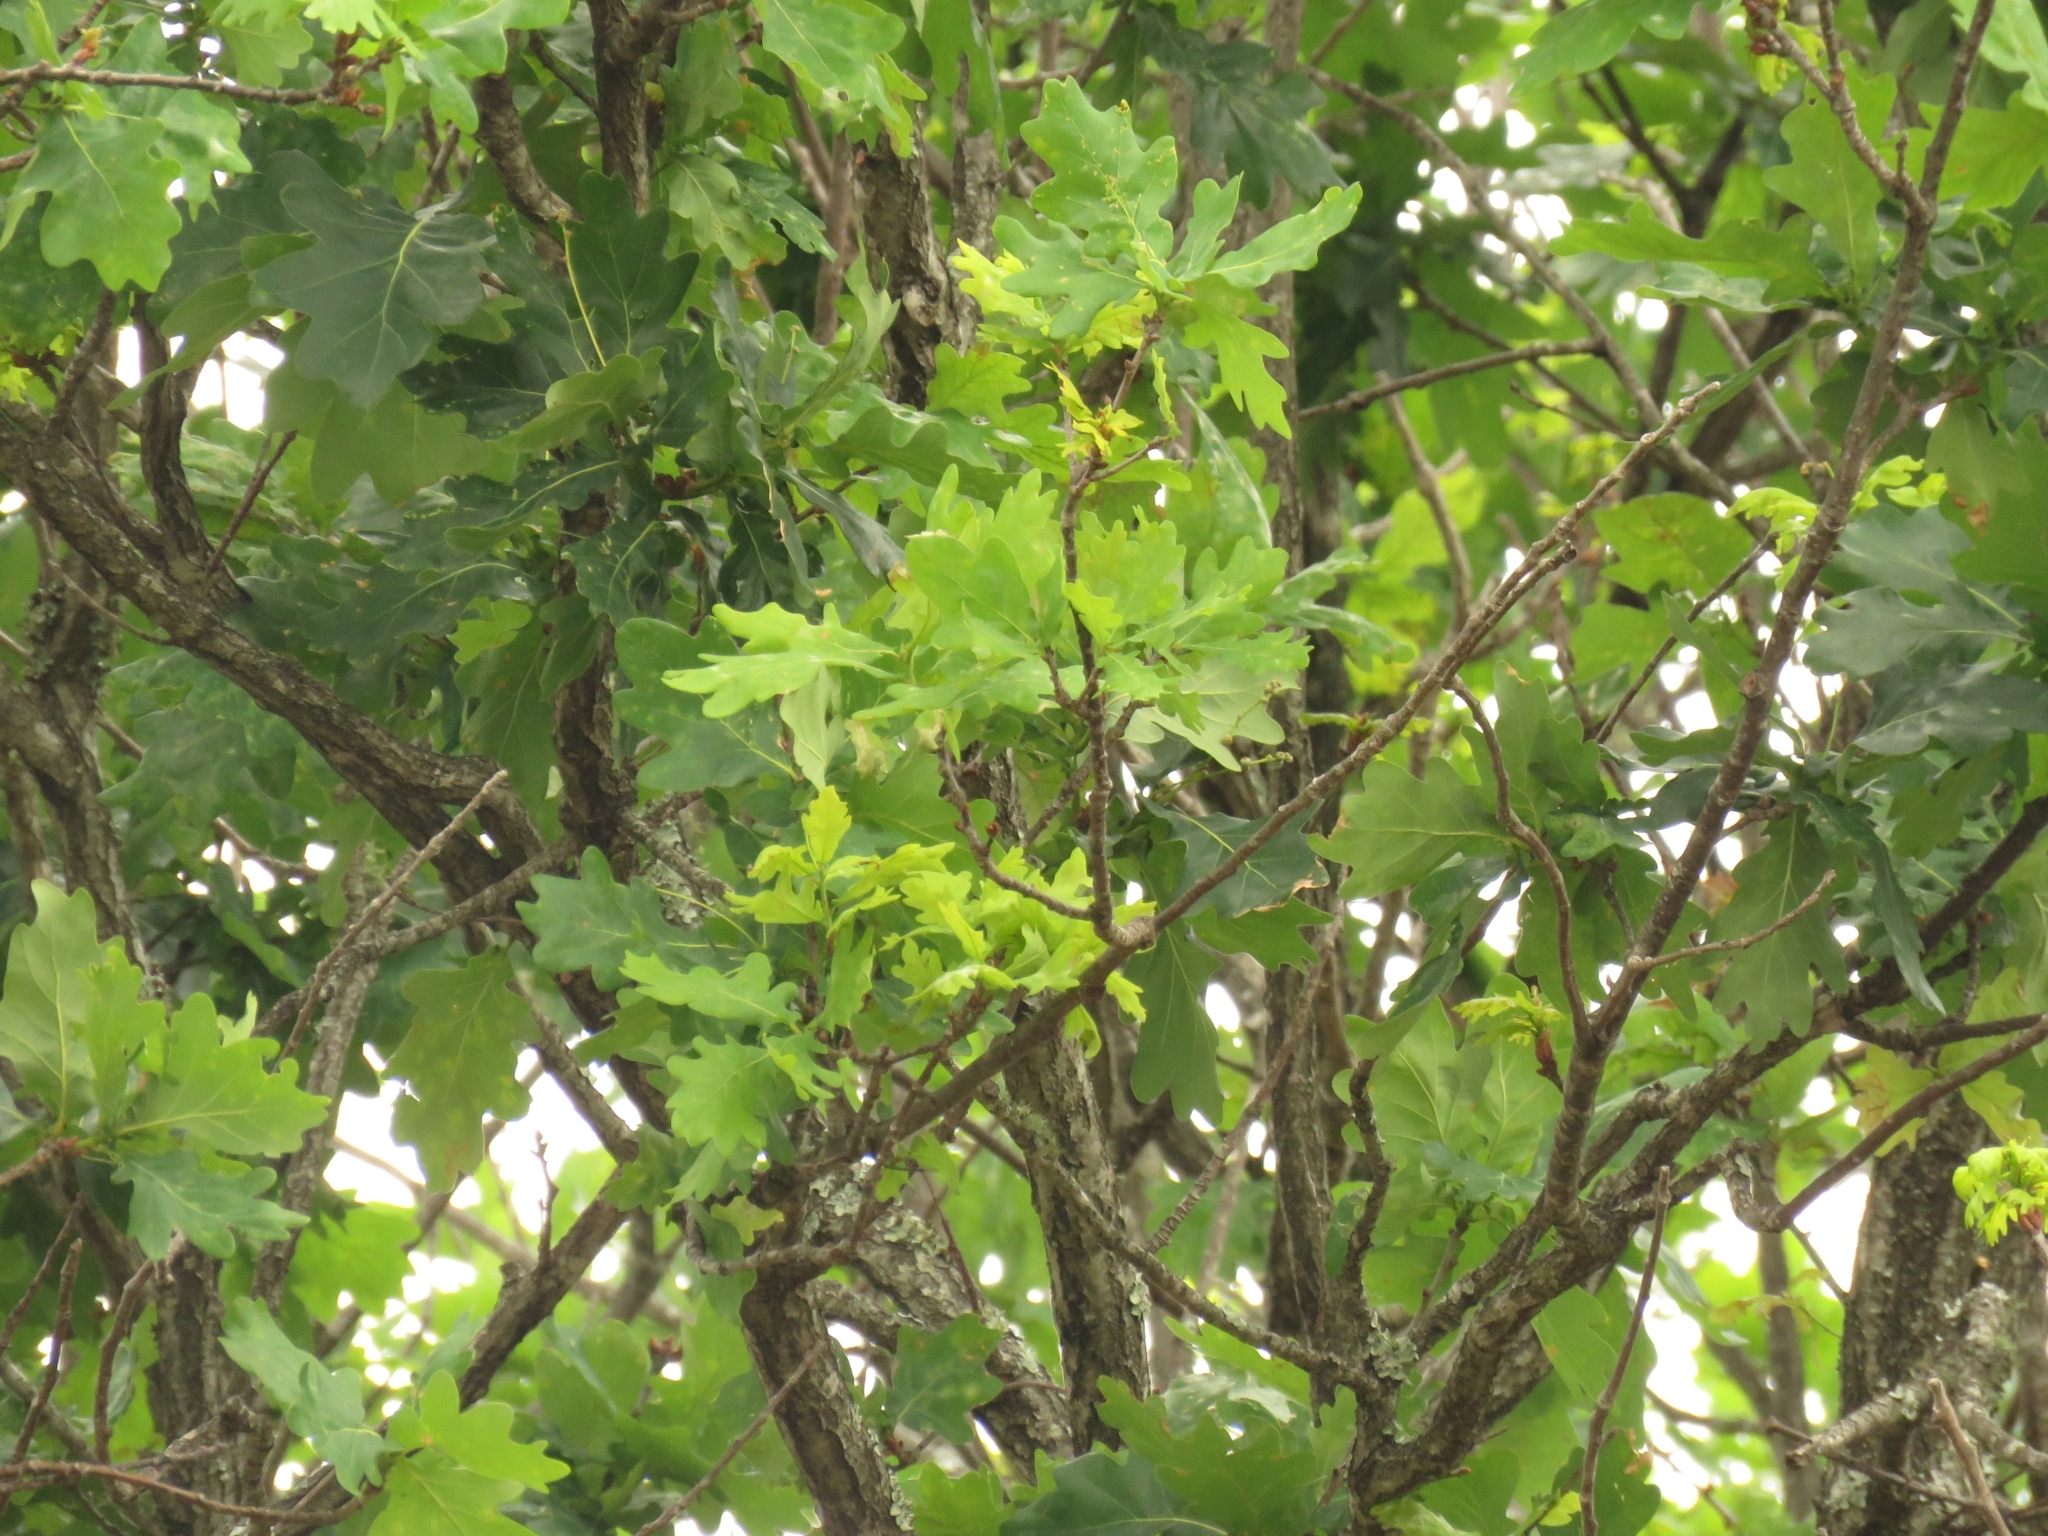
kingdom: Plantae
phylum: Tracheophyta
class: Magnoliopsida
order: Fagales
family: Fagaceae
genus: Quercus
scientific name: Quercus robur
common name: Pedunculate oak
